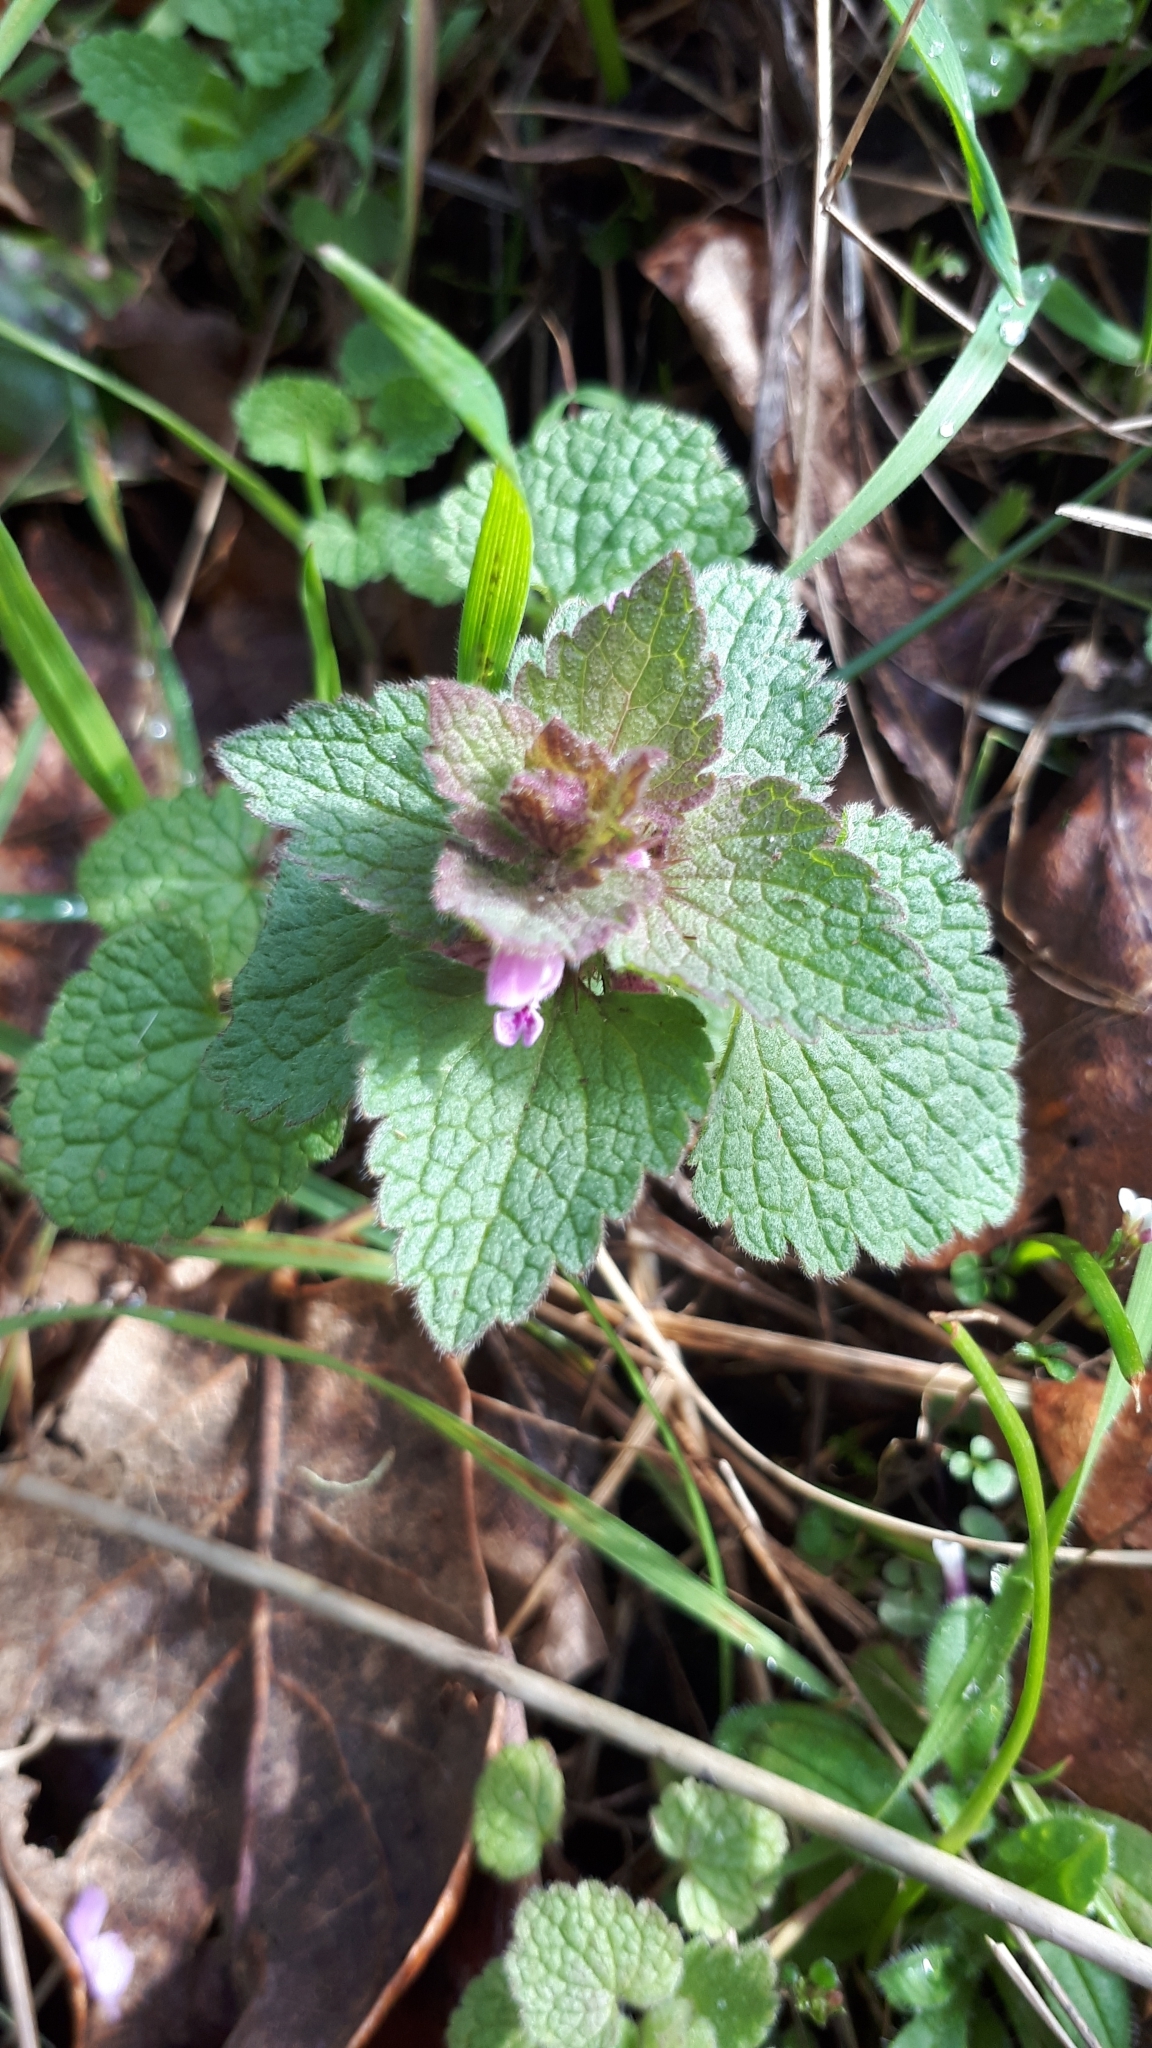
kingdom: Plantae
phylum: Tracheophyta
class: Magnoliopsida
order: Lamiales
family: Lamiaceae
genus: Lamium
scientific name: Lamium purpureum
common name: Red dead-nettle
